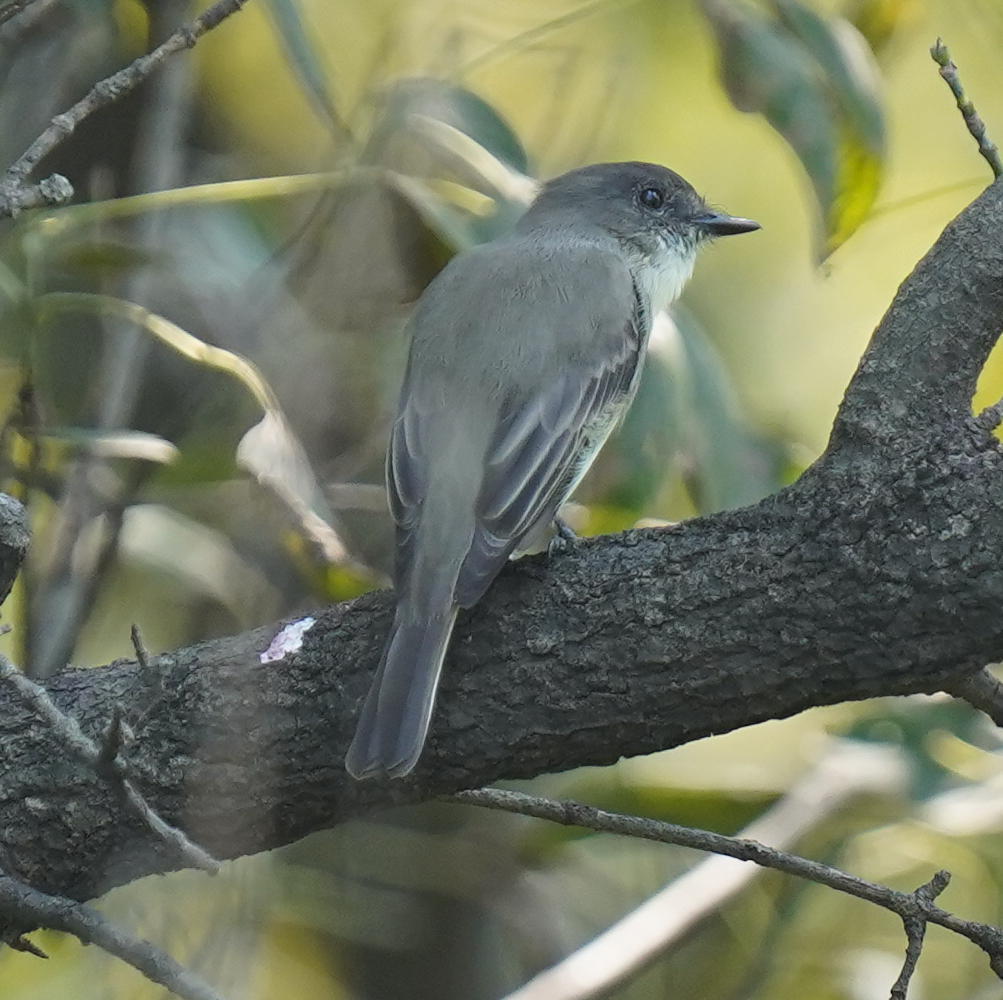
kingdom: Animalia
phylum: Chordata
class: Aves
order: Passeriformes
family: Tyrannidae
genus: Sayornis
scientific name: Sayornis phoebe
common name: Eastern phoebe
